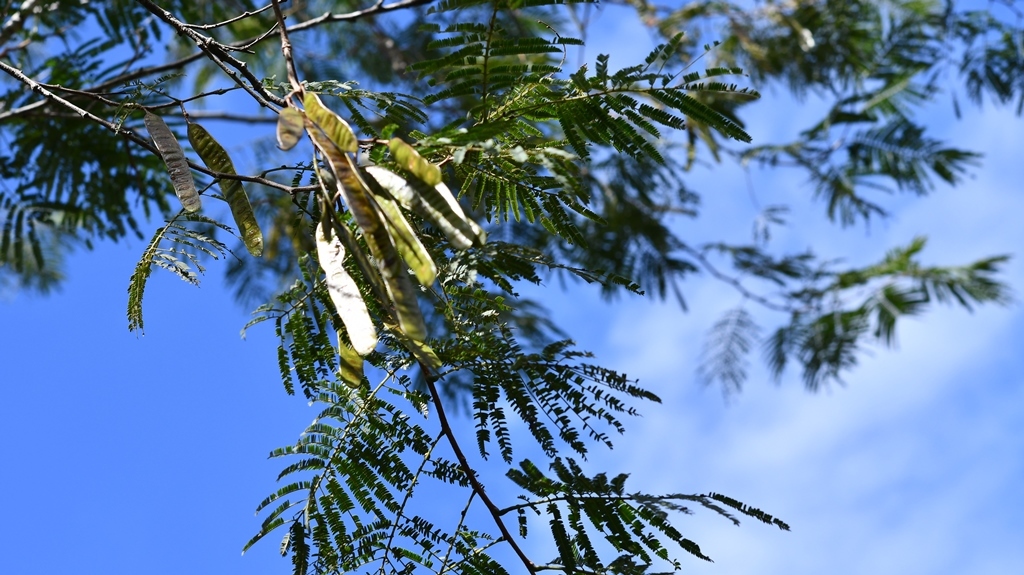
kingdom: Plantae
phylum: Tracheophyta
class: Magnoliopsida
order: Fabales
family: Fabaceae
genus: Leucaena
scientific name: Leucaena diversifolia
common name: Red leucaena
